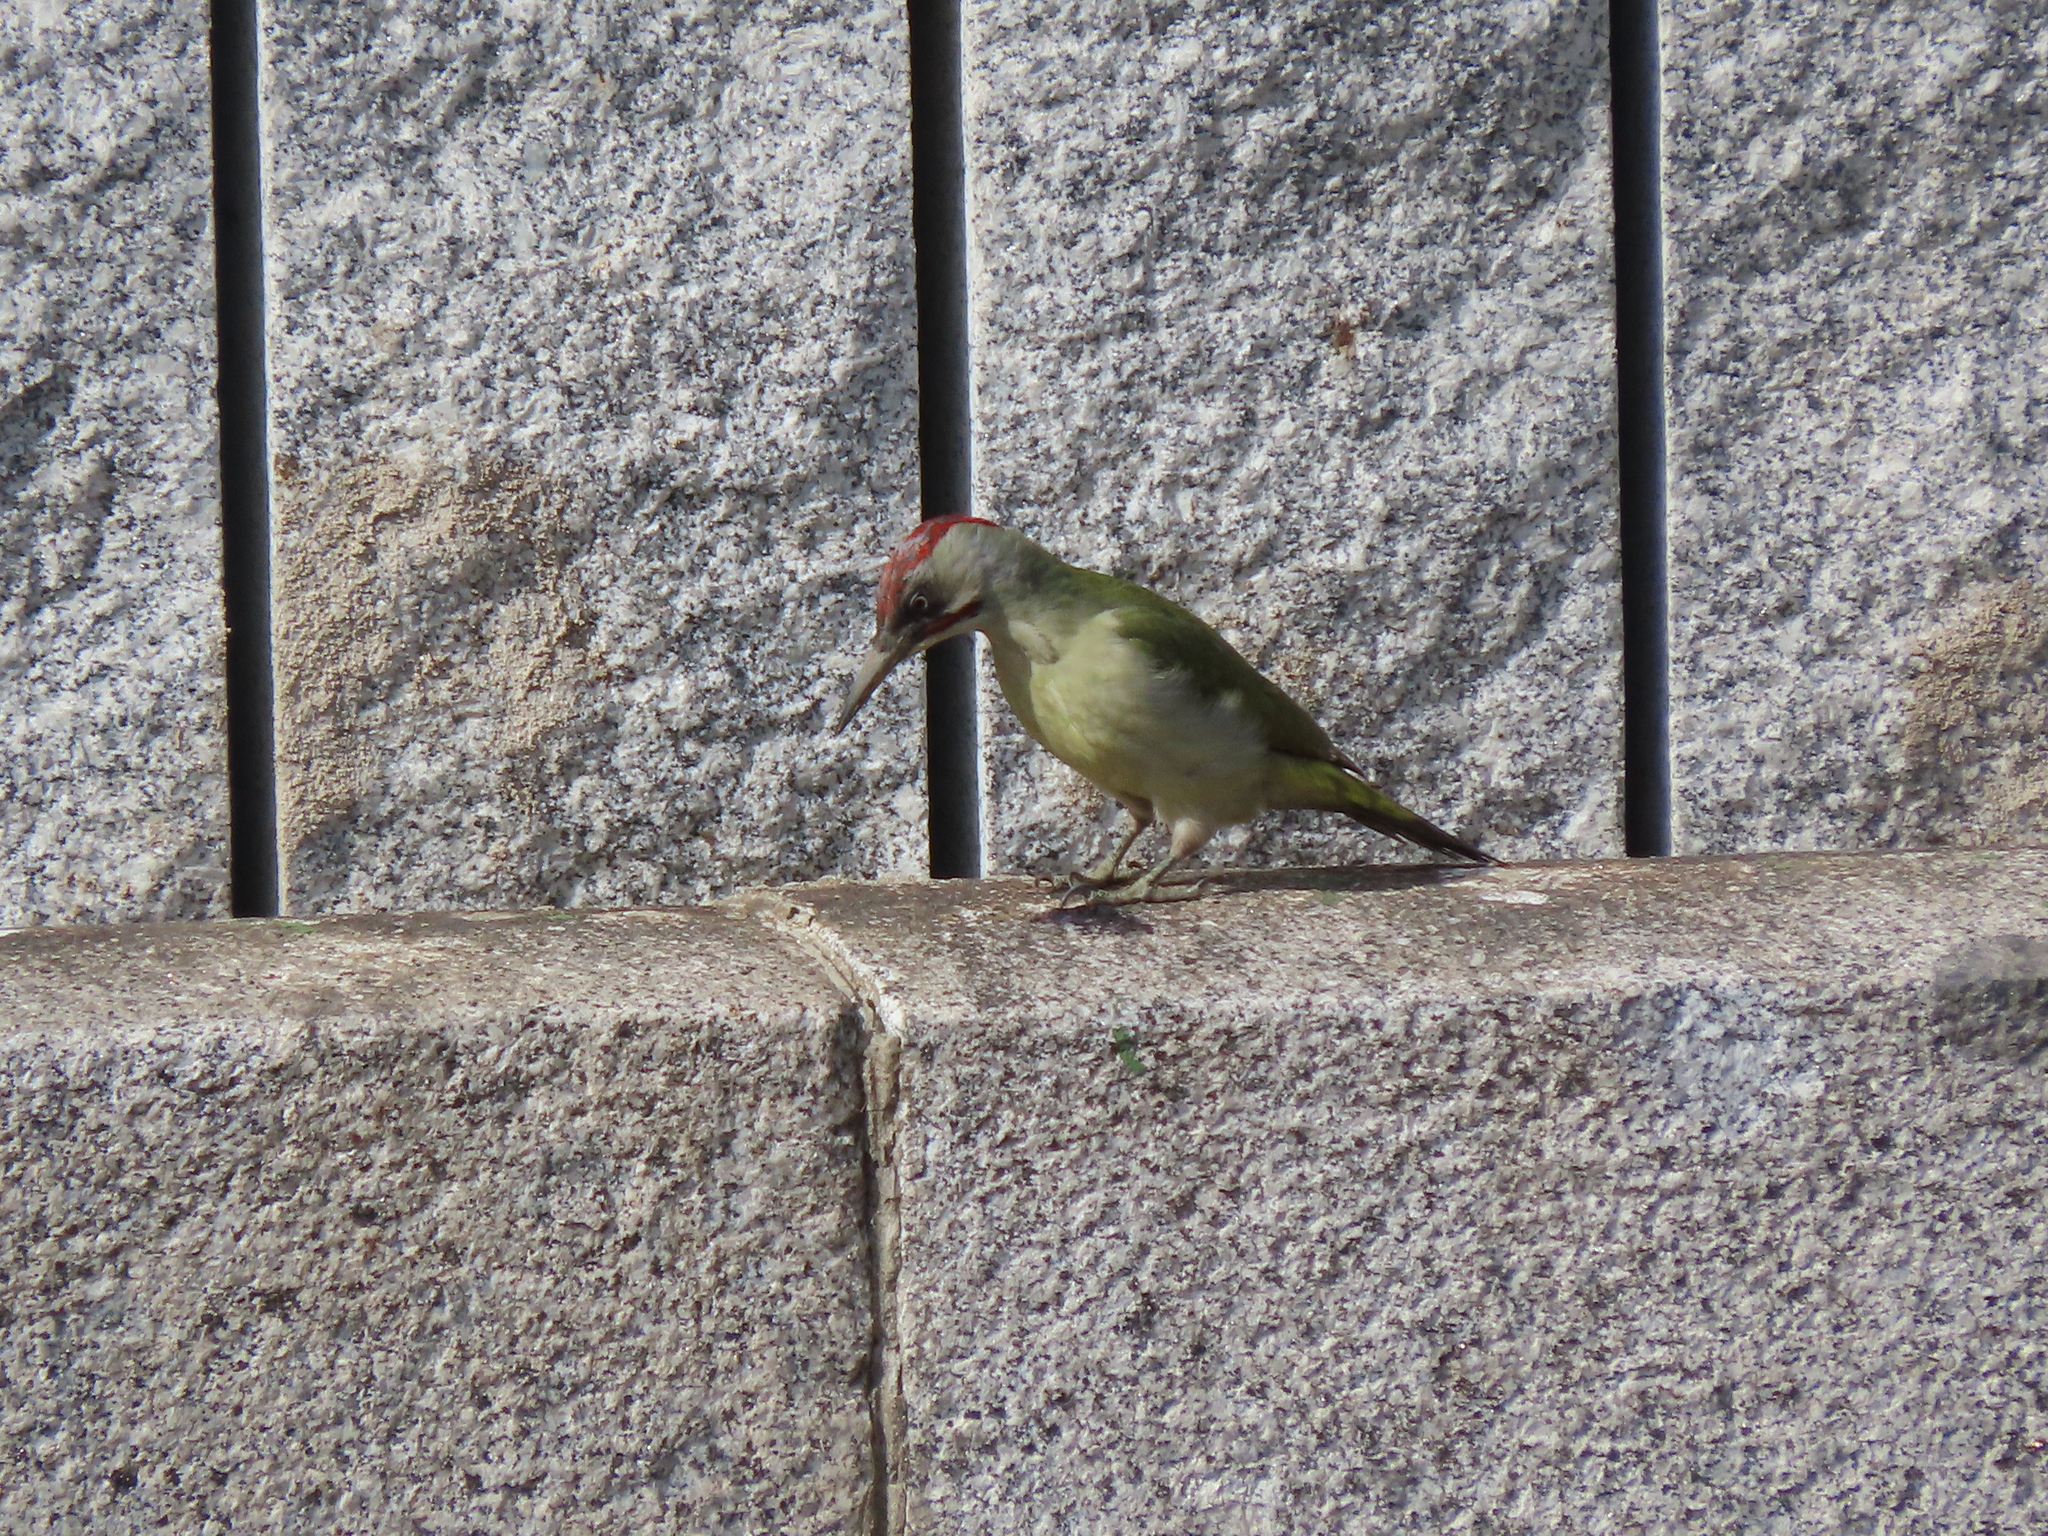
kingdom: Animalia
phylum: Chordata
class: Aves
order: Piciformes
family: Picidae
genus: Picus
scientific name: Picus sharpei
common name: Iberian green woodpecker
